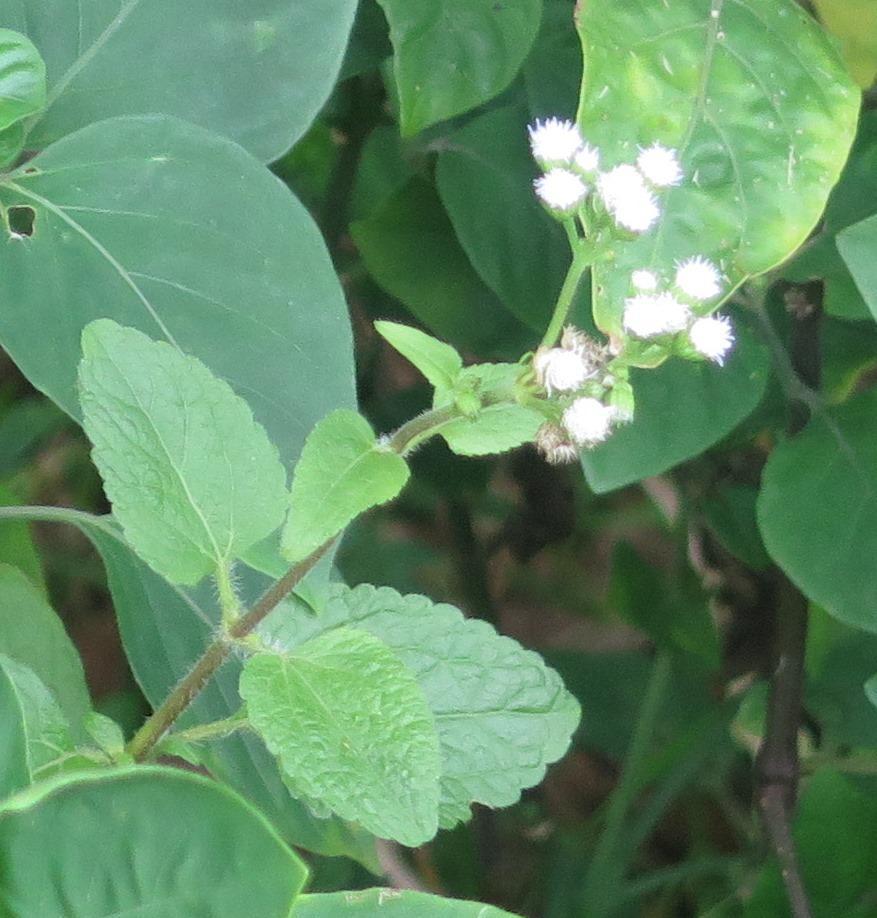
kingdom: Plantae
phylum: Tracheophyta
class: Magnoliopsida
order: Asterales
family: Asteraceae
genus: Ageratum
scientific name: Ageratum houstonianum
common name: Bluemink
